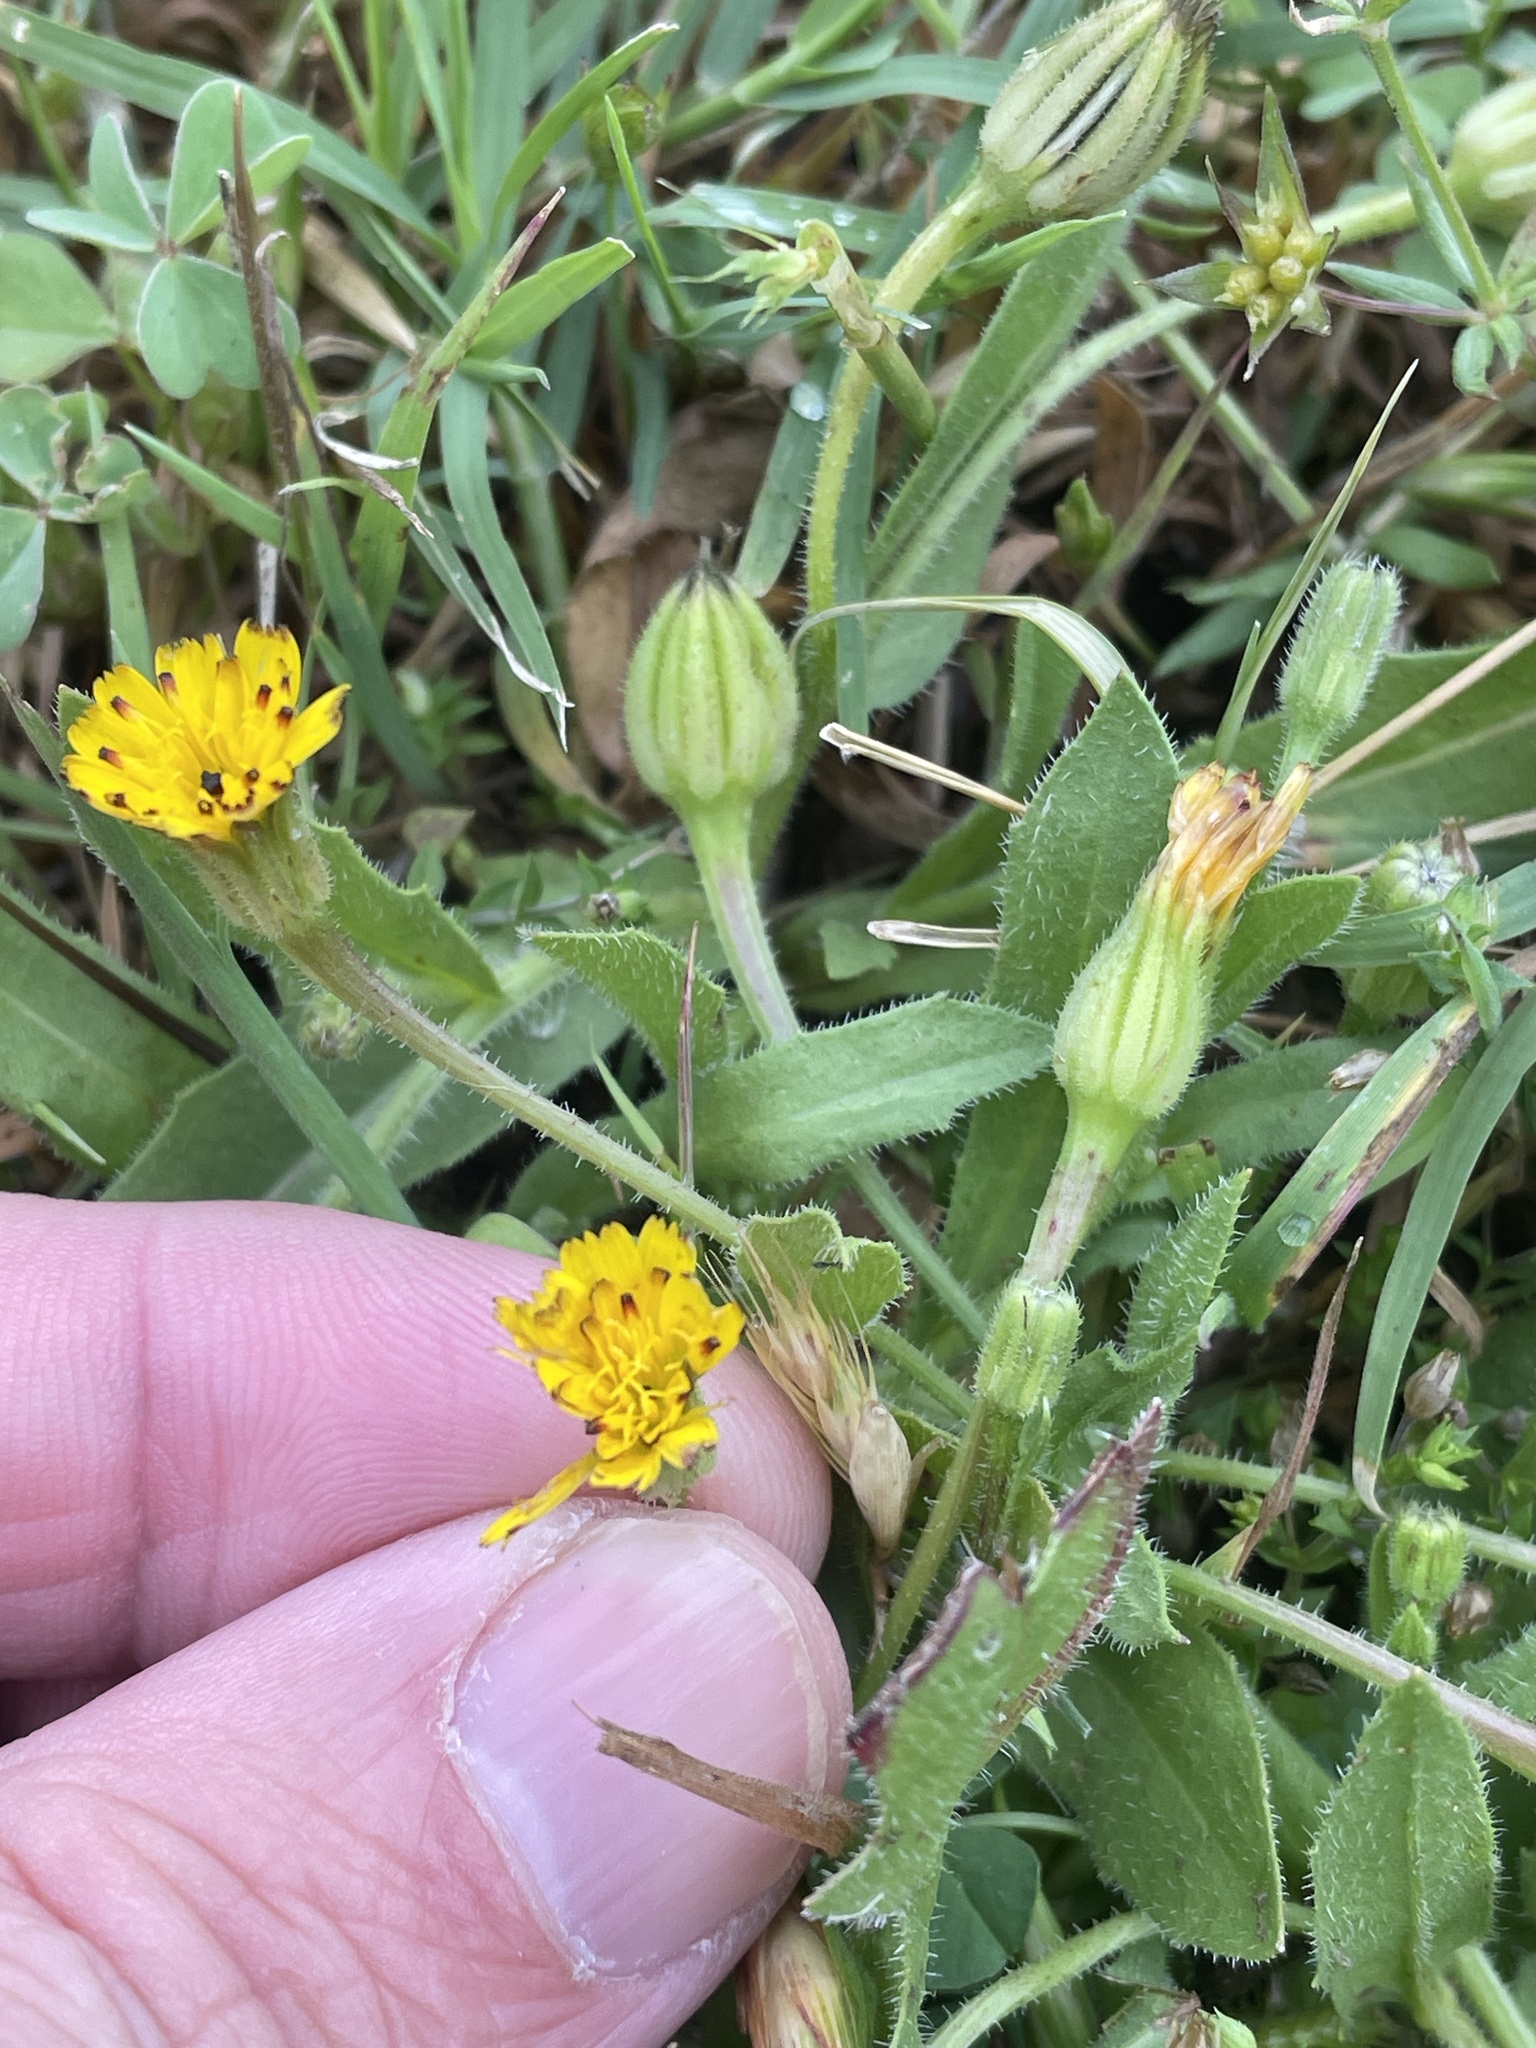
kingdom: Plantae
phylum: Tracheophyta
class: Magnoliopsida
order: Asterales
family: Asteraceae
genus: Hedypnois
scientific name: Hedypnois rhagadioloides
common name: Cretan weed
